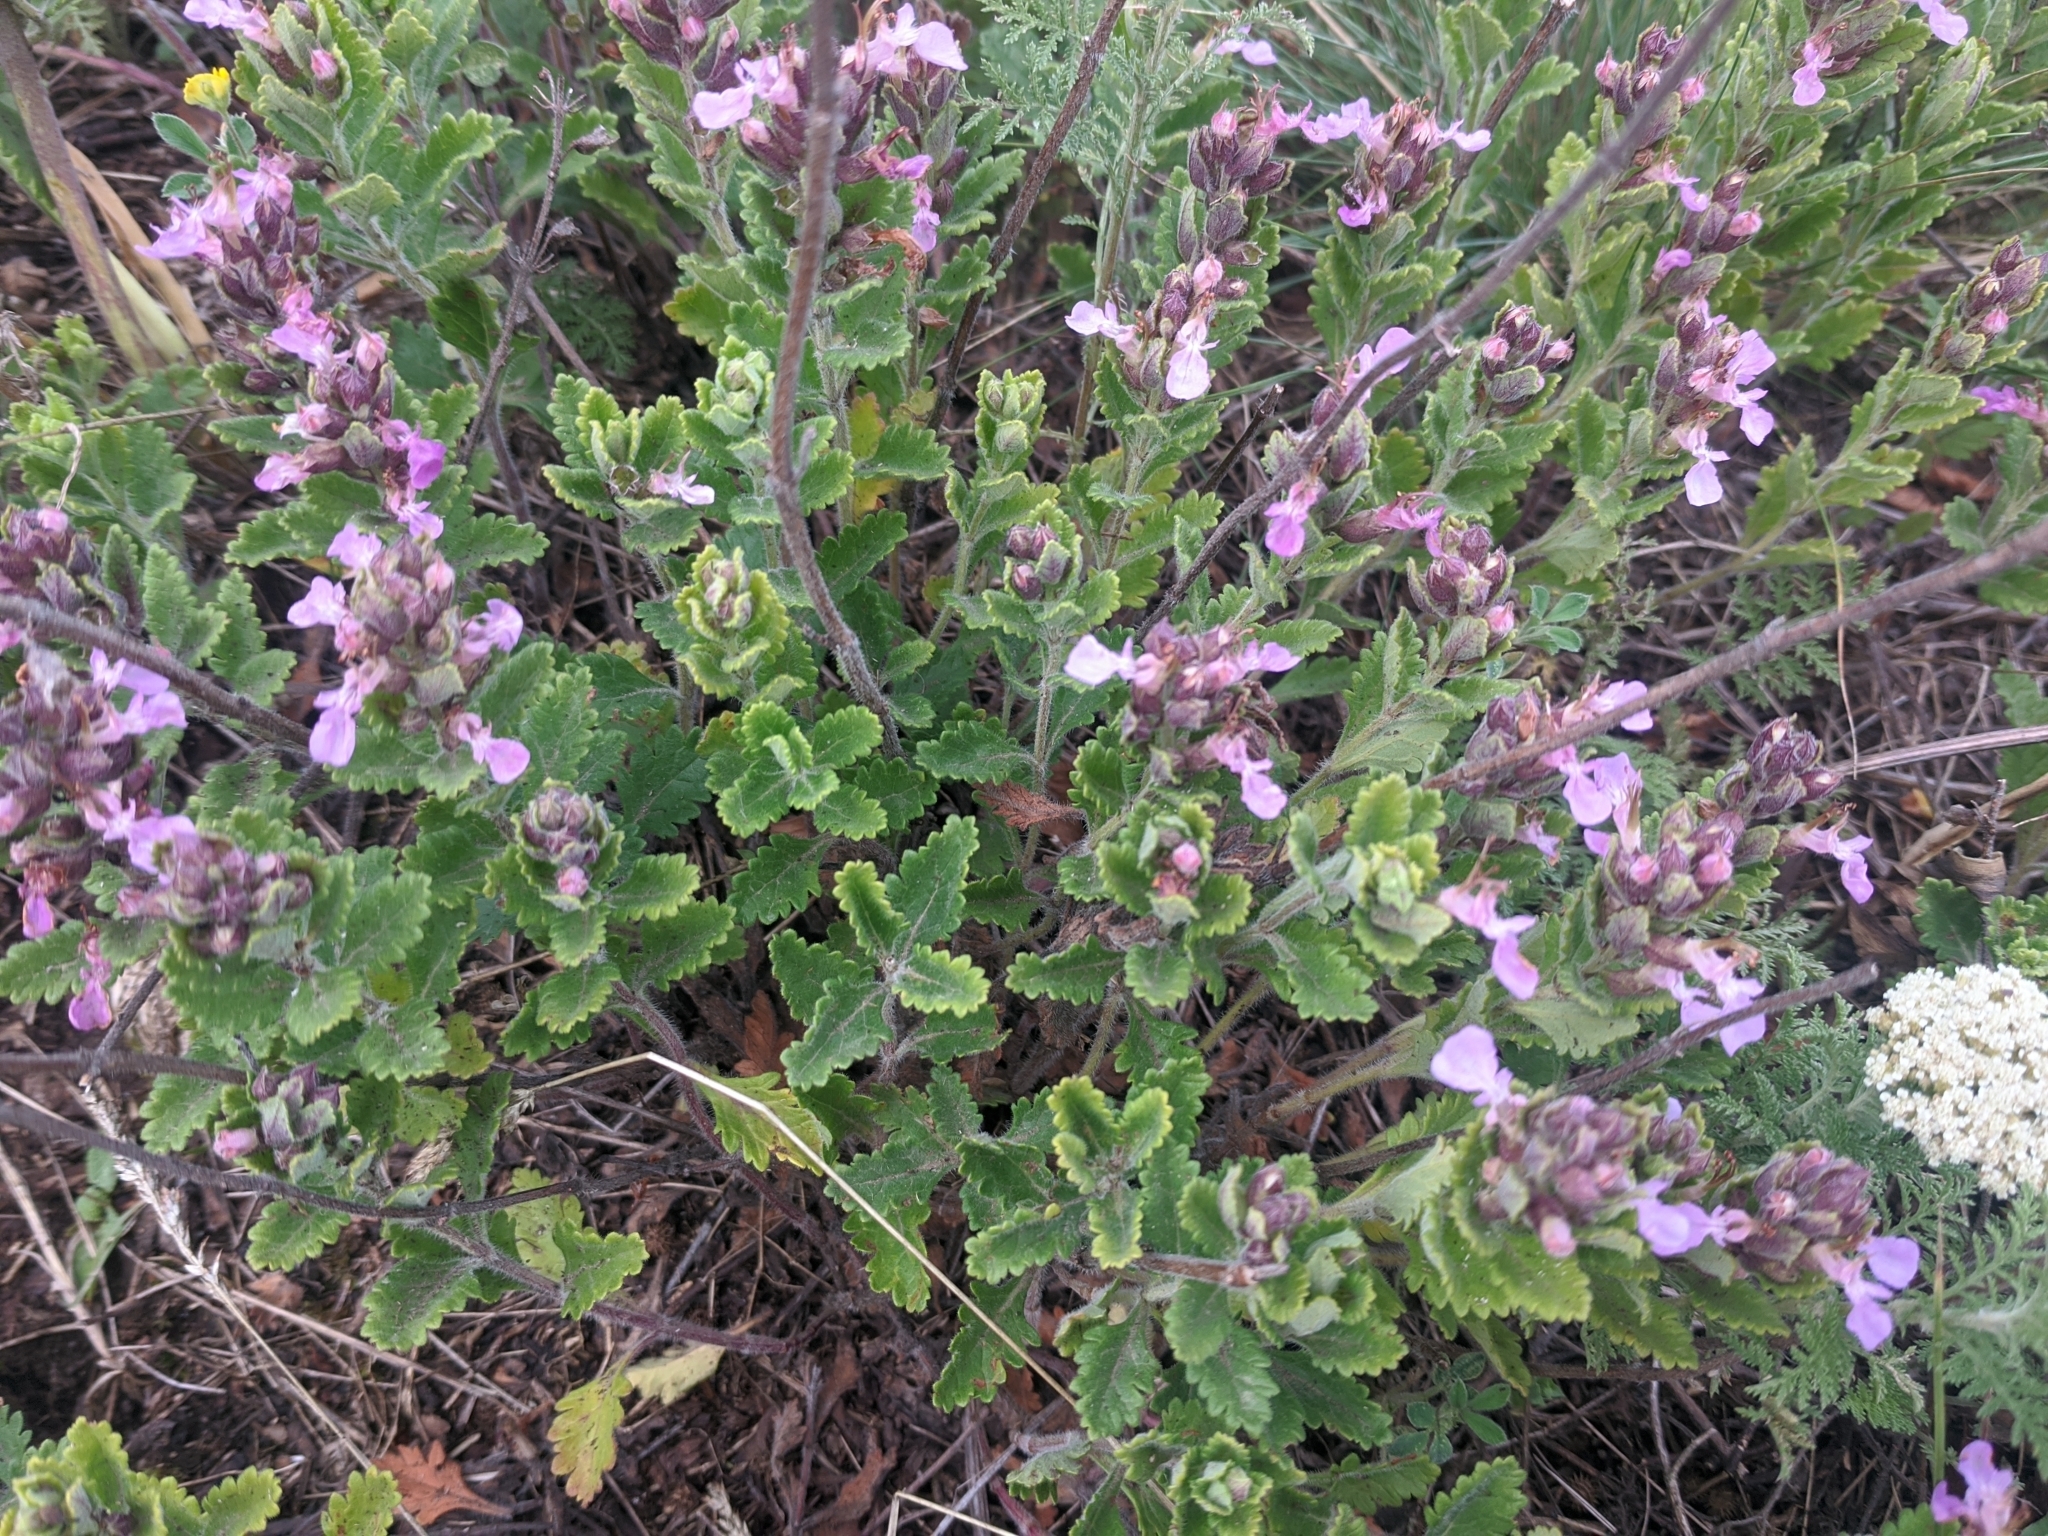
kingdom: Plantae
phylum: Tracheophyta
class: Magnoliopsida
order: Lamiales
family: Lamiaceae
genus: Teucrium
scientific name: Teucrium chamaedrys
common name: Wall germander
